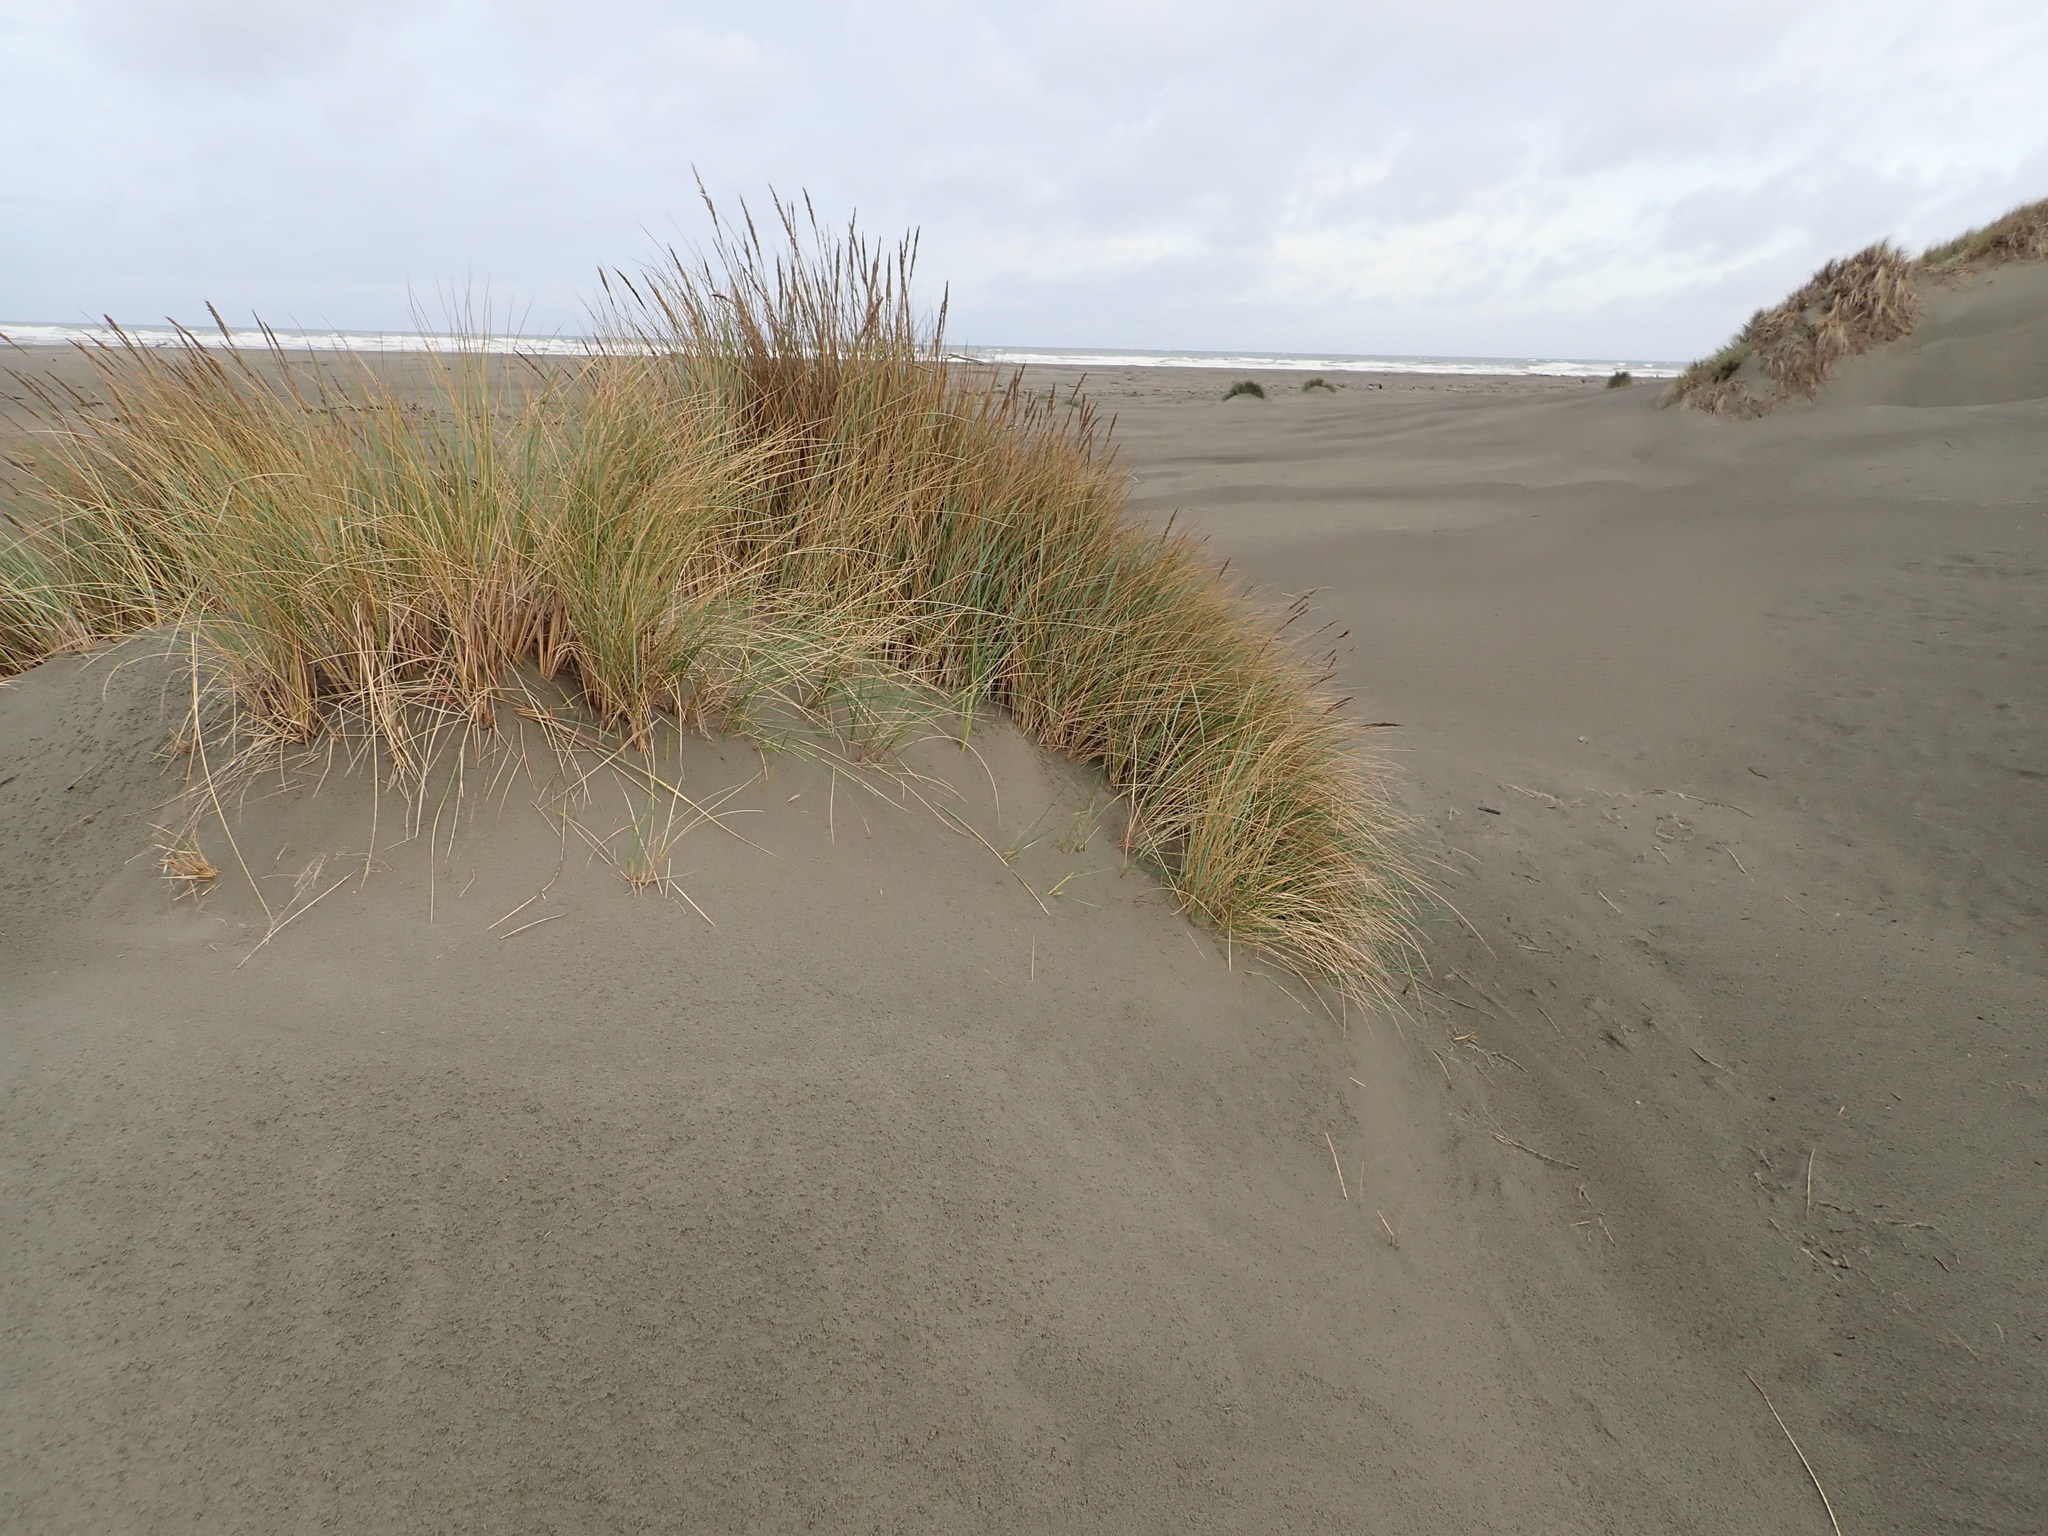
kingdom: Plantae
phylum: Tracheophyta
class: Liliopsida
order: Poales
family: Poaceae
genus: Calamagrostis
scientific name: Calamagrostis arenaria
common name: European beachgrass
